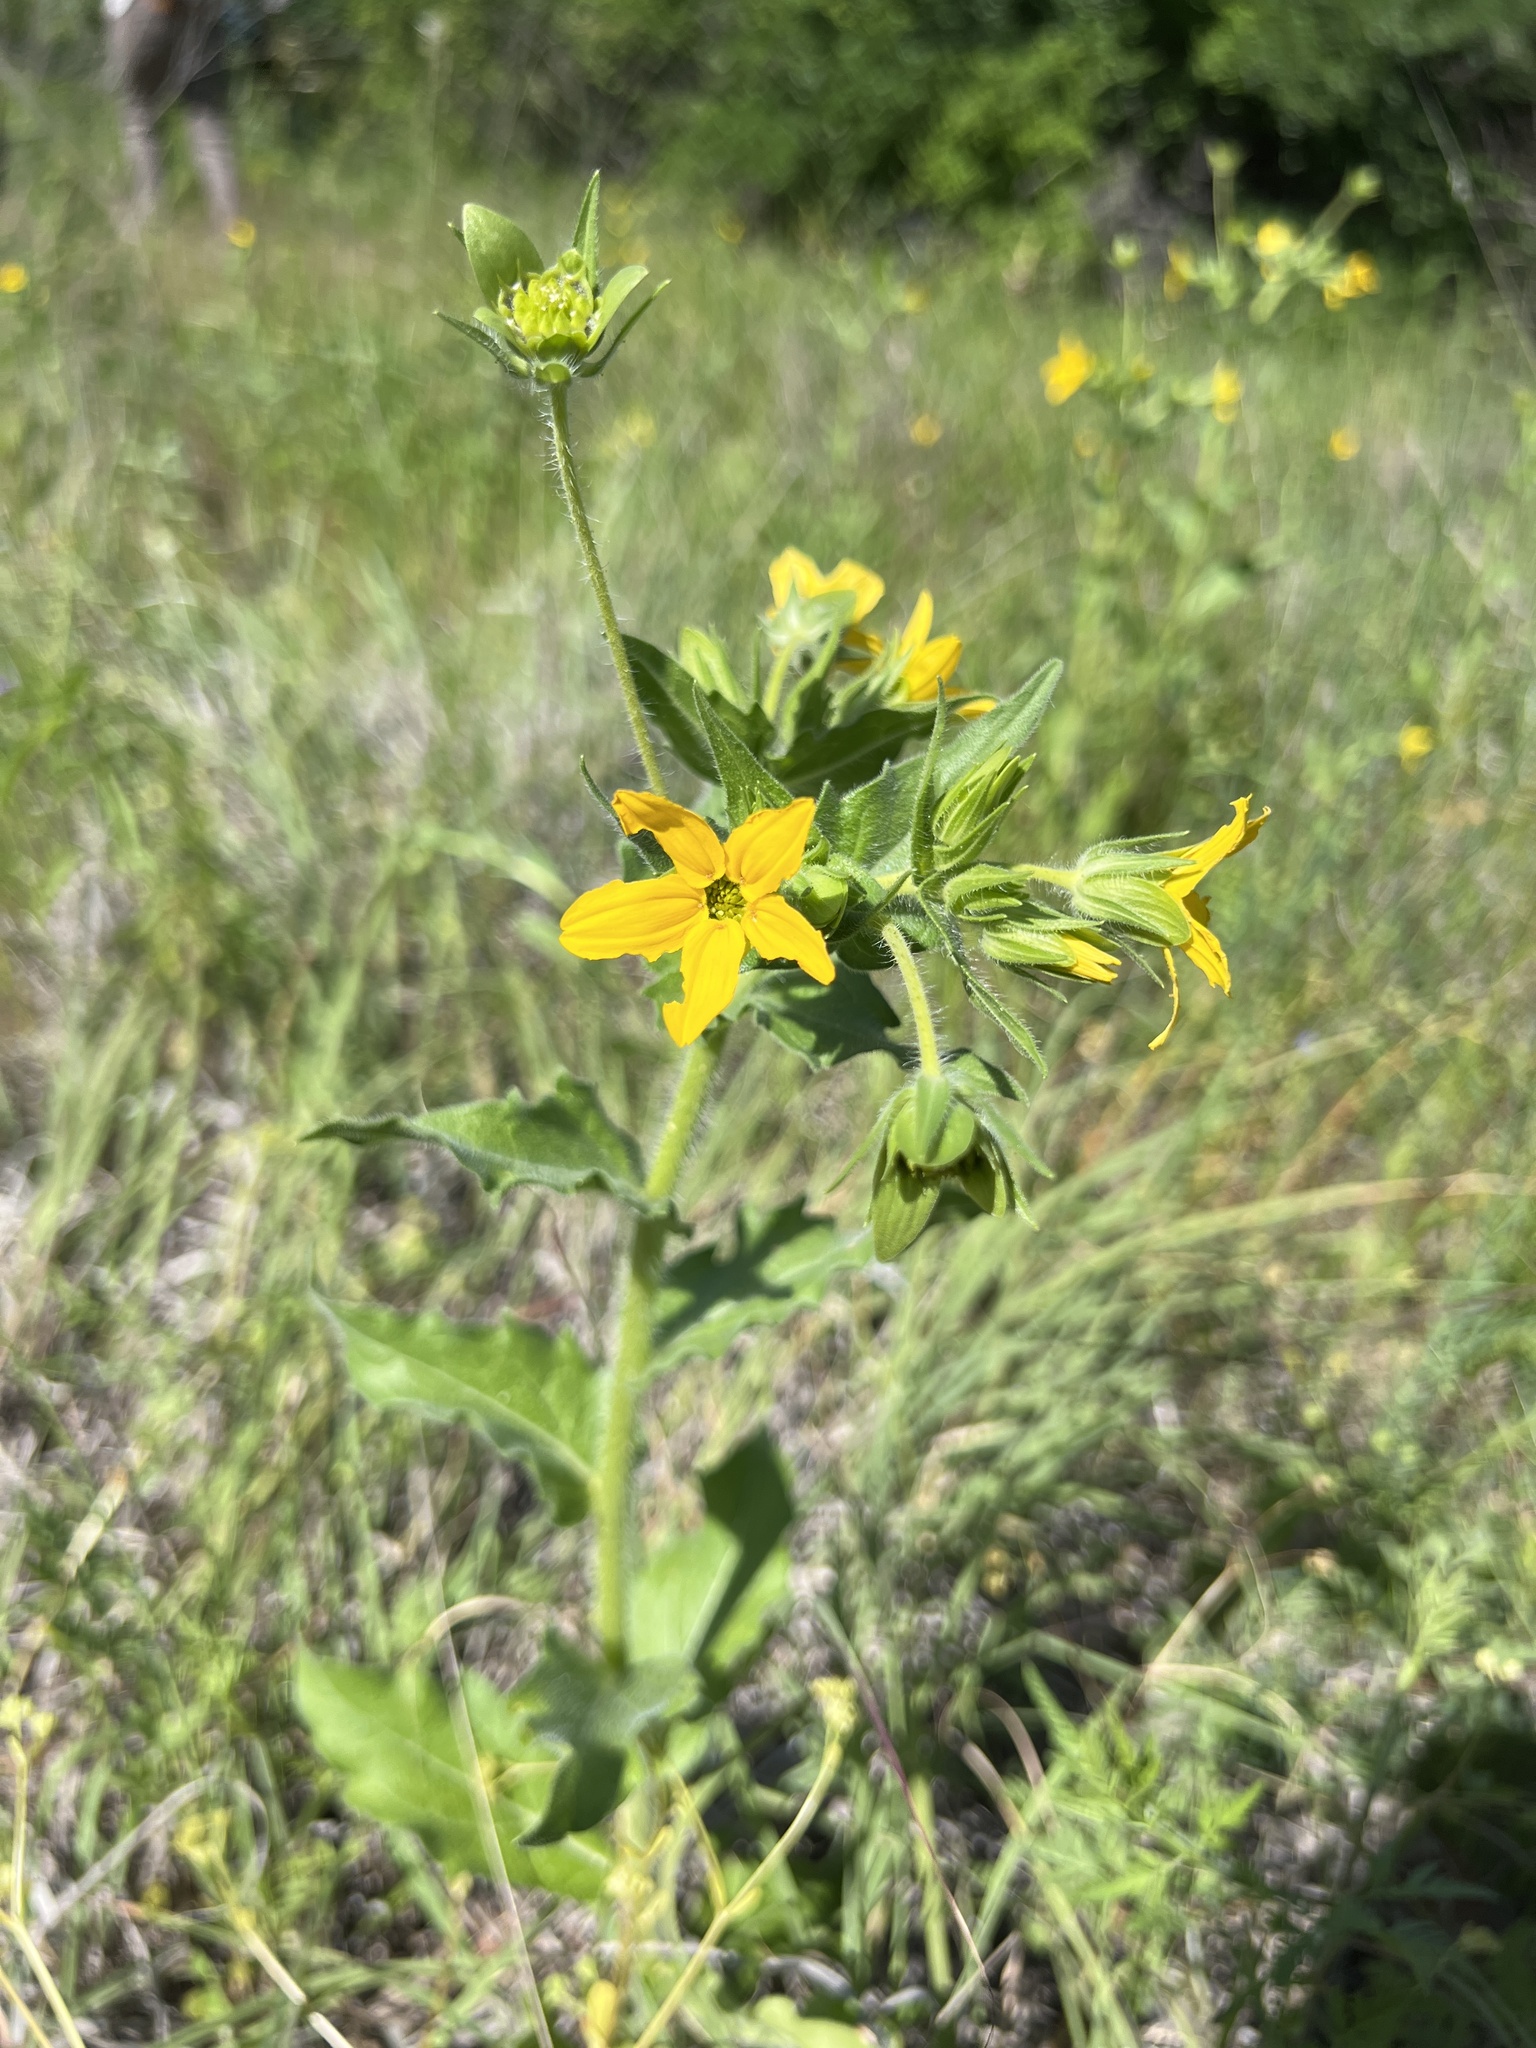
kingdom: Plantae
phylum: Tracheophyta
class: Magnoliopsida
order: Asterales
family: Asteraceae
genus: Lindheimera
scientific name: Lindheimera texana
